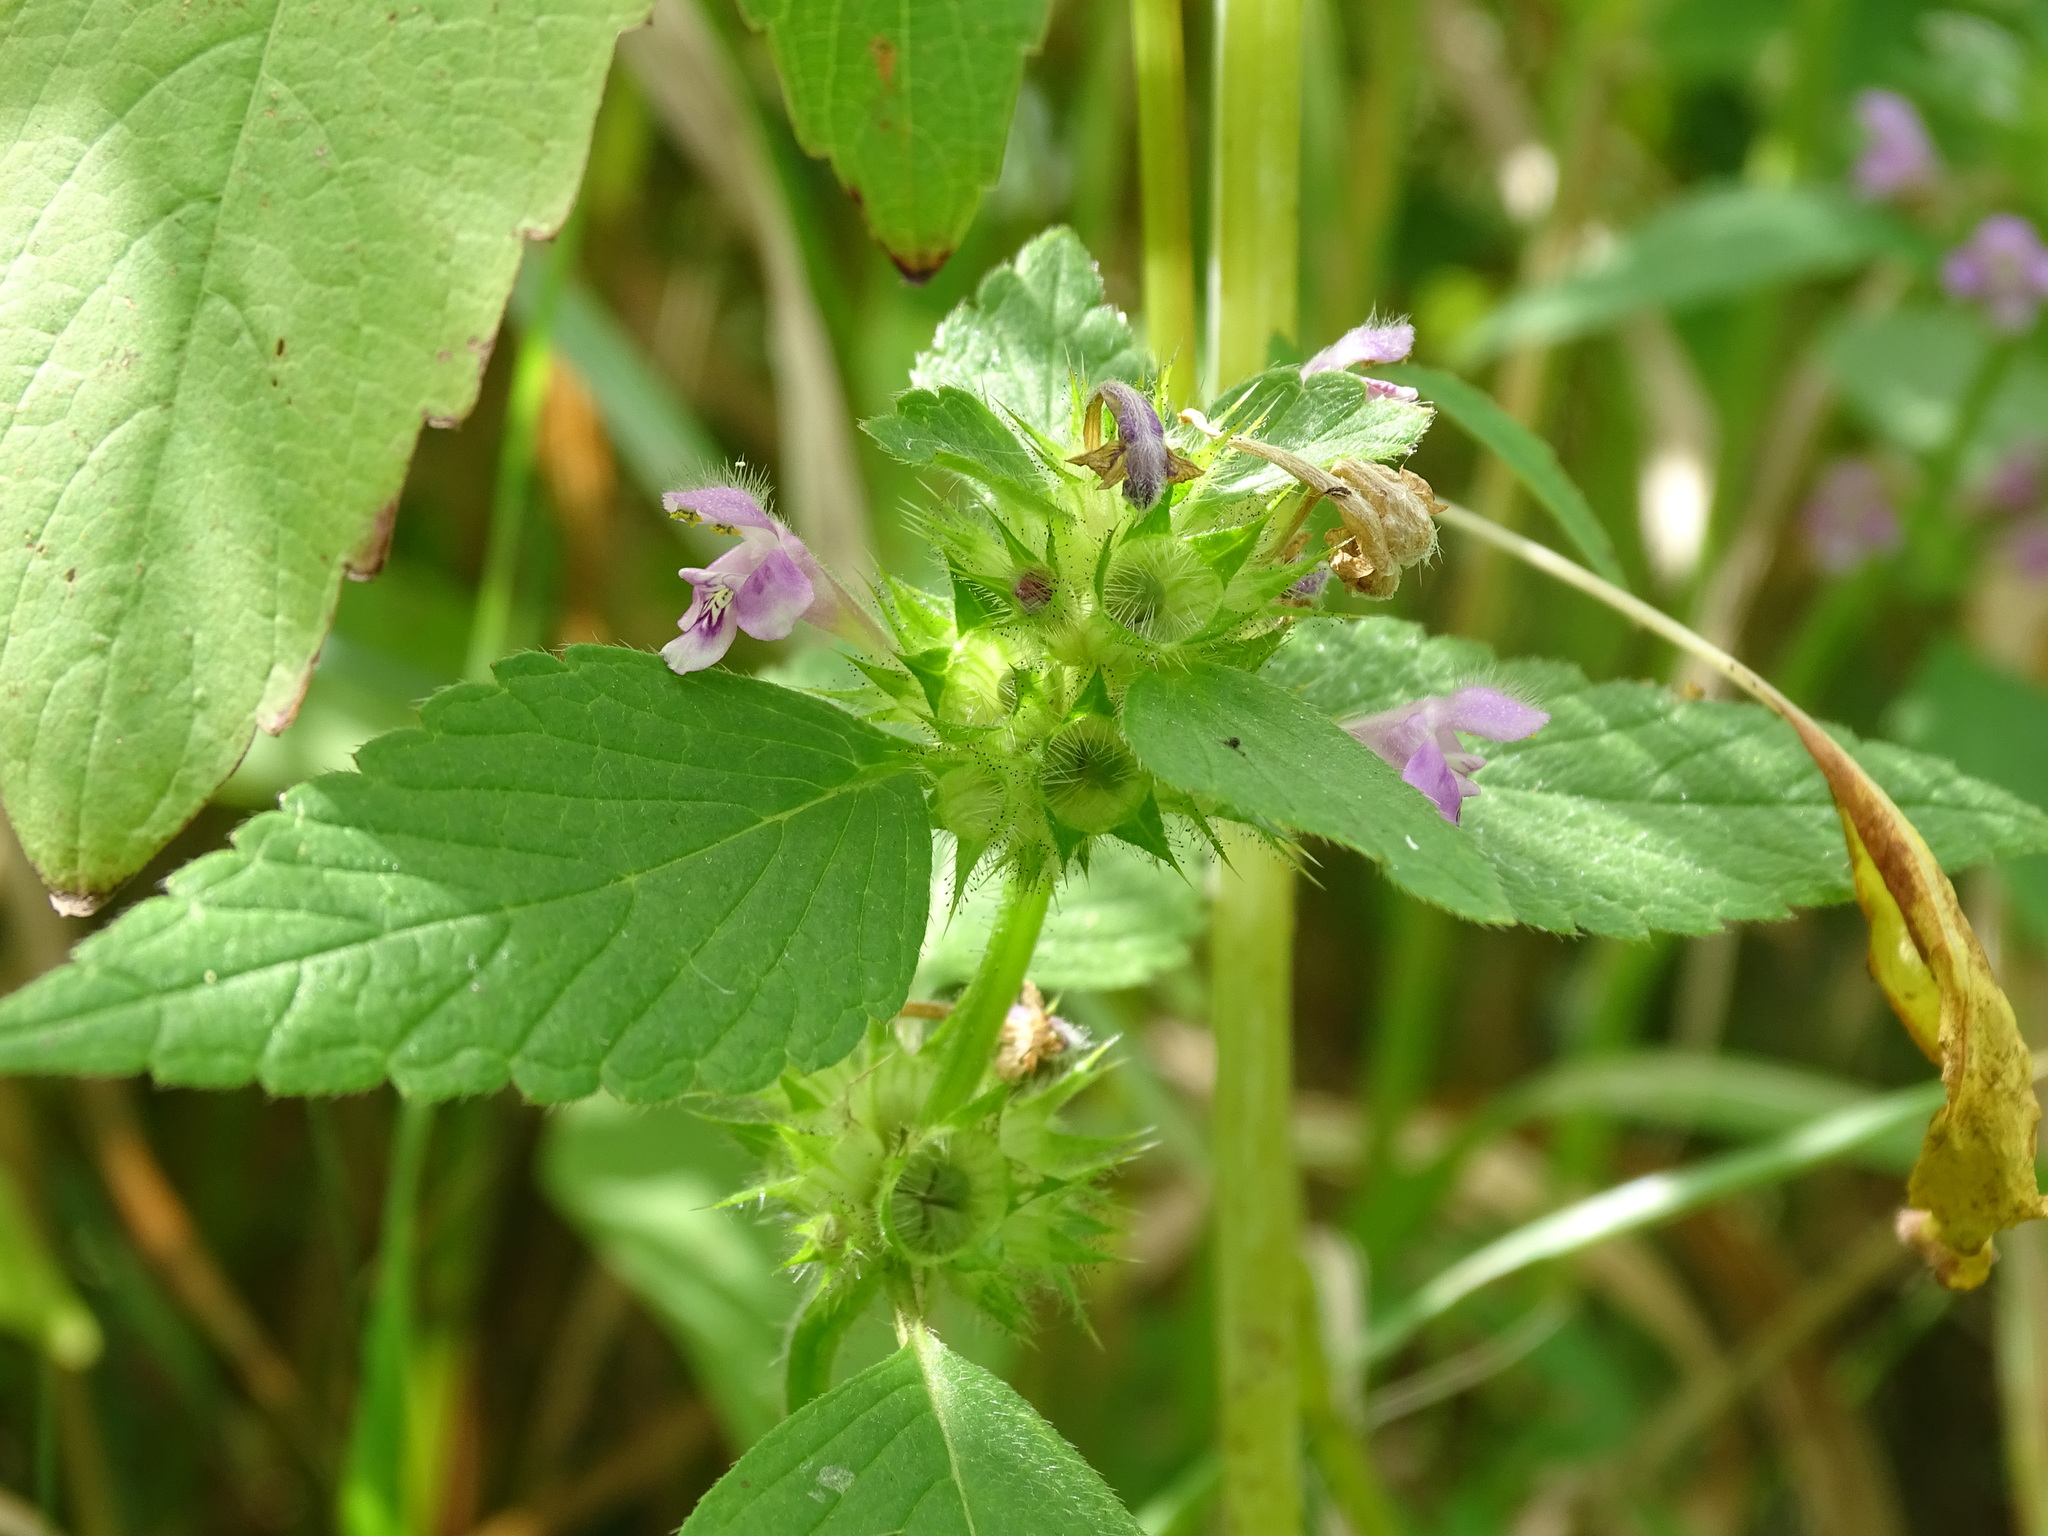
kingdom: Plantae
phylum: Tracheophyta
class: Magnoliopsida
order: Lamiales
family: Lamiaceae
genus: Galeopsis
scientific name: Galeopsis tetrahit
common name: Common hemp-nettle
